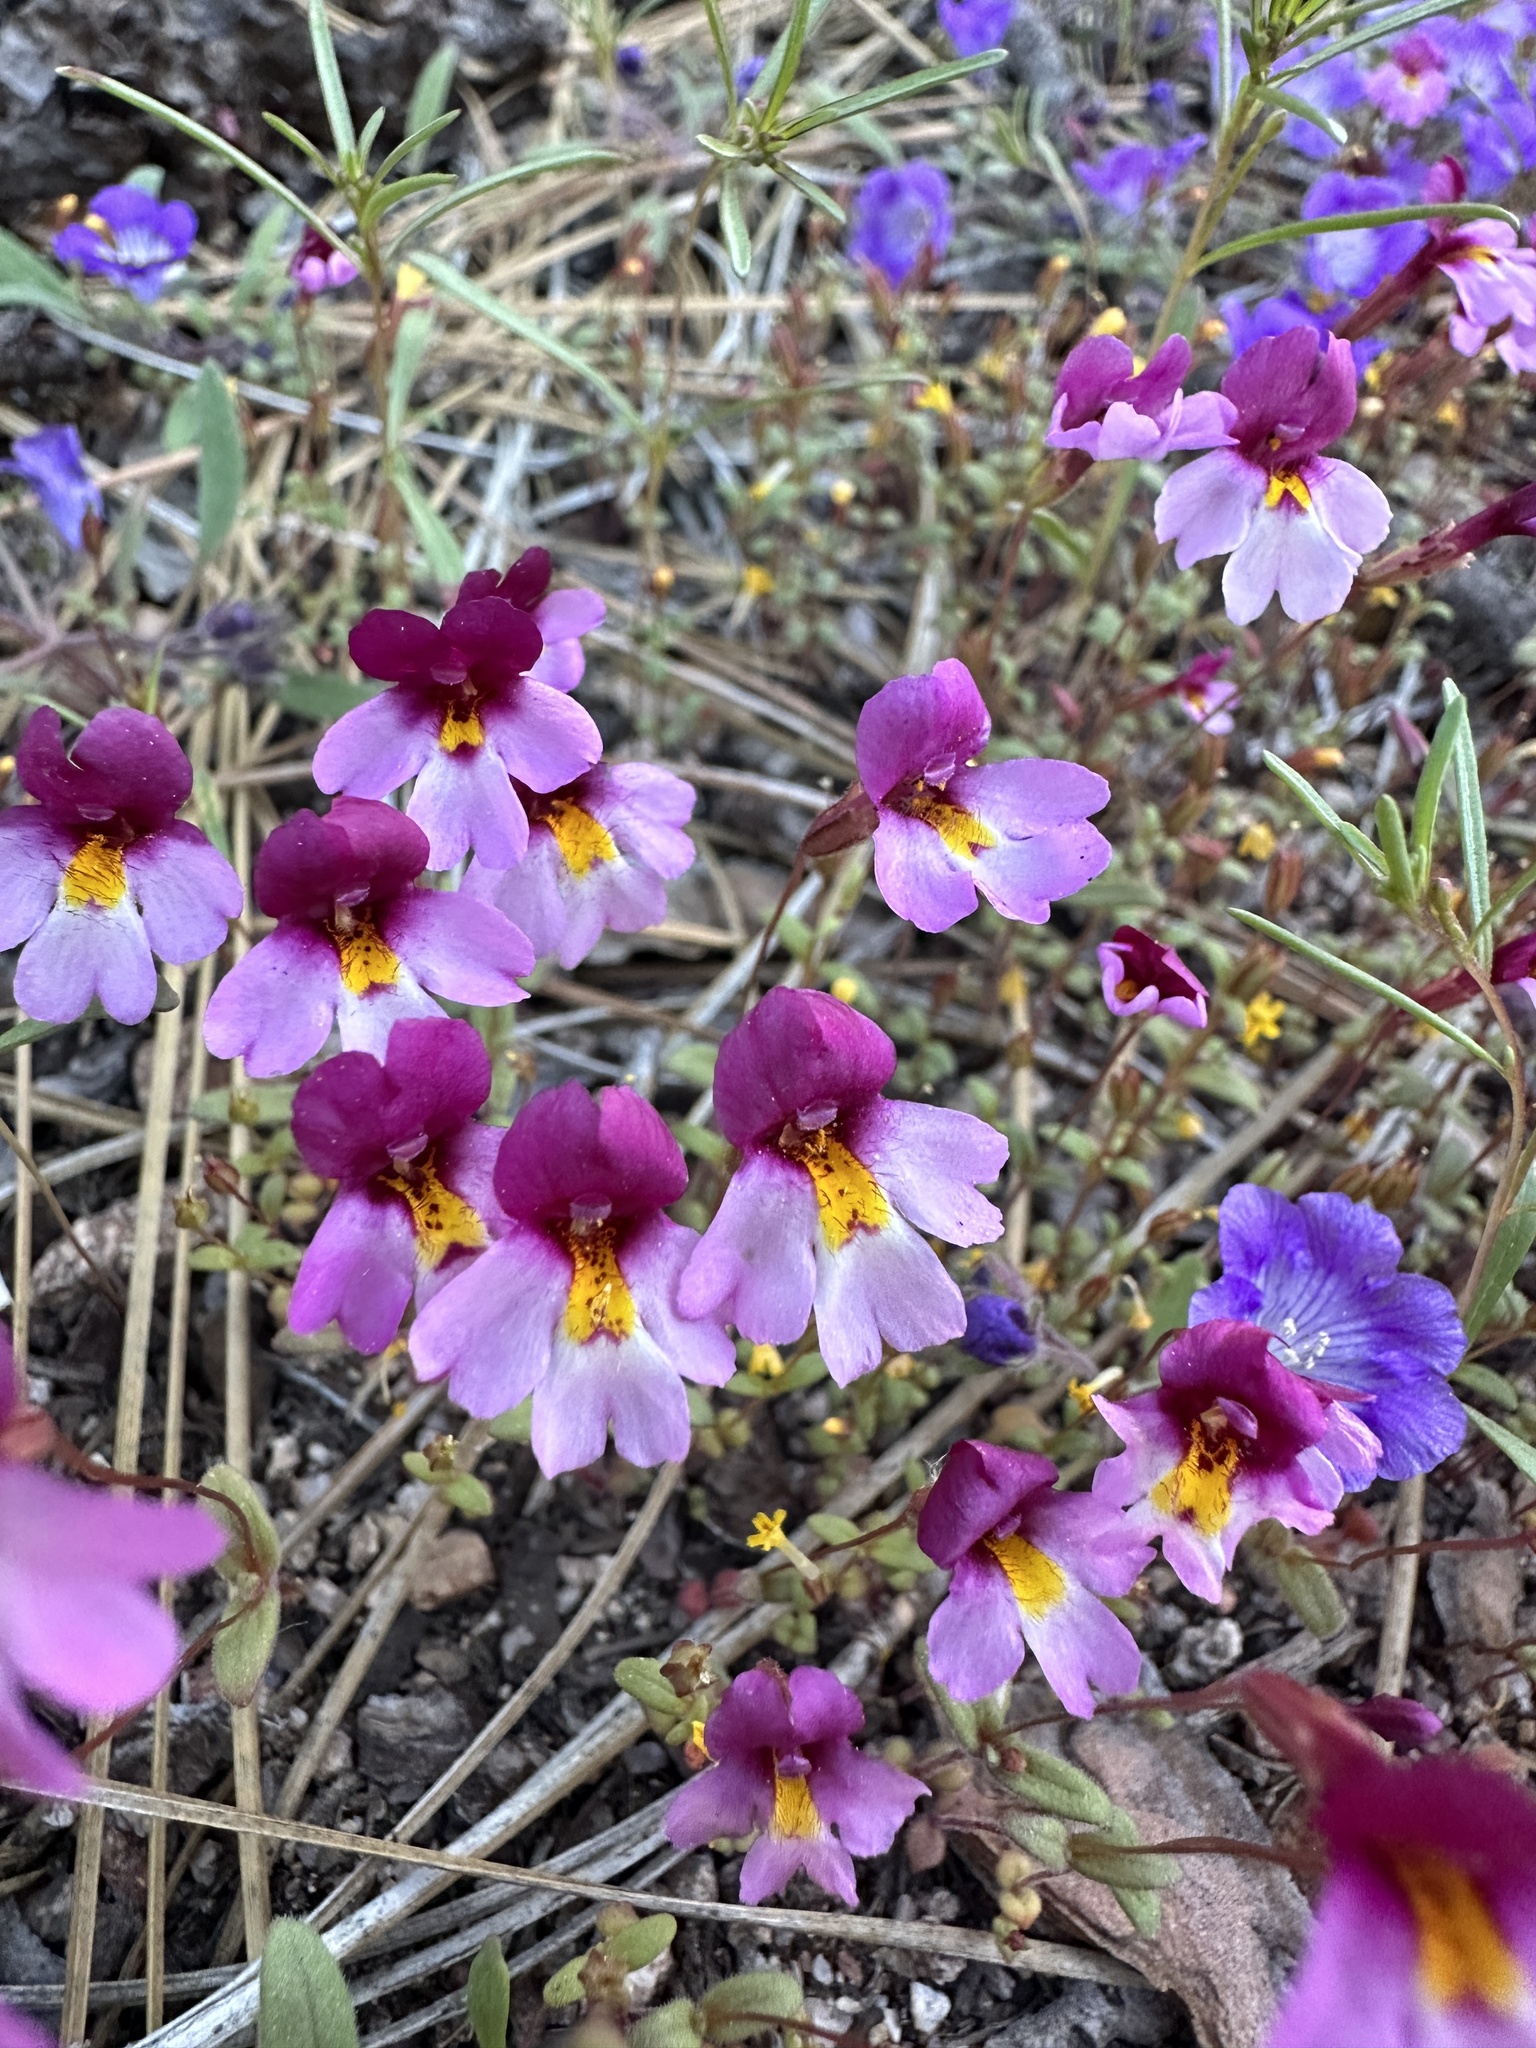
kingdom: Plantae
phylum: Tracheophyta
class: Magnoliopsida
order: Lamiales
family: Phrymaceae
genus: Erythranthe
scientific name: Erythranthe purpurea
